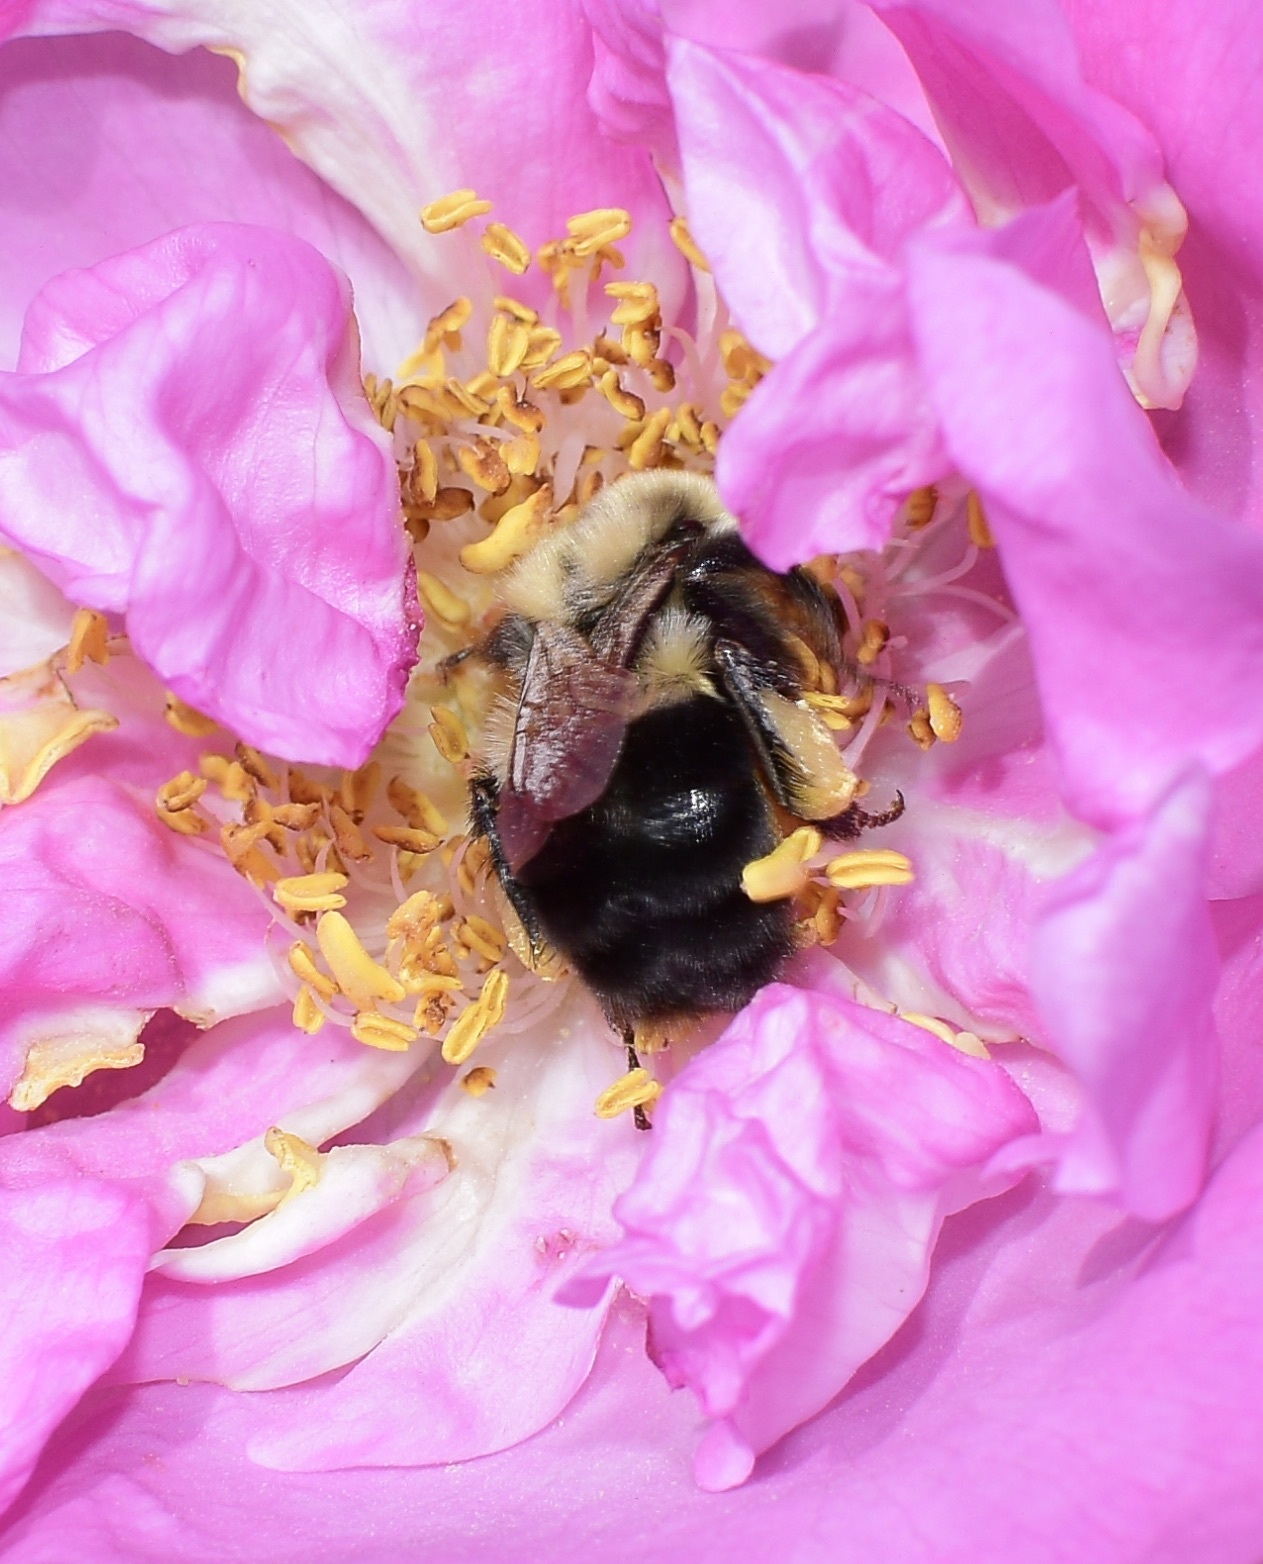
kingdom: Animalia
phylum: Arthropoda
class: Insecta
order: Hymenoptera
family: Apidae
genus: Bombus
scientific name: Bombus impatiens
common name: Common eastern bumble bee
